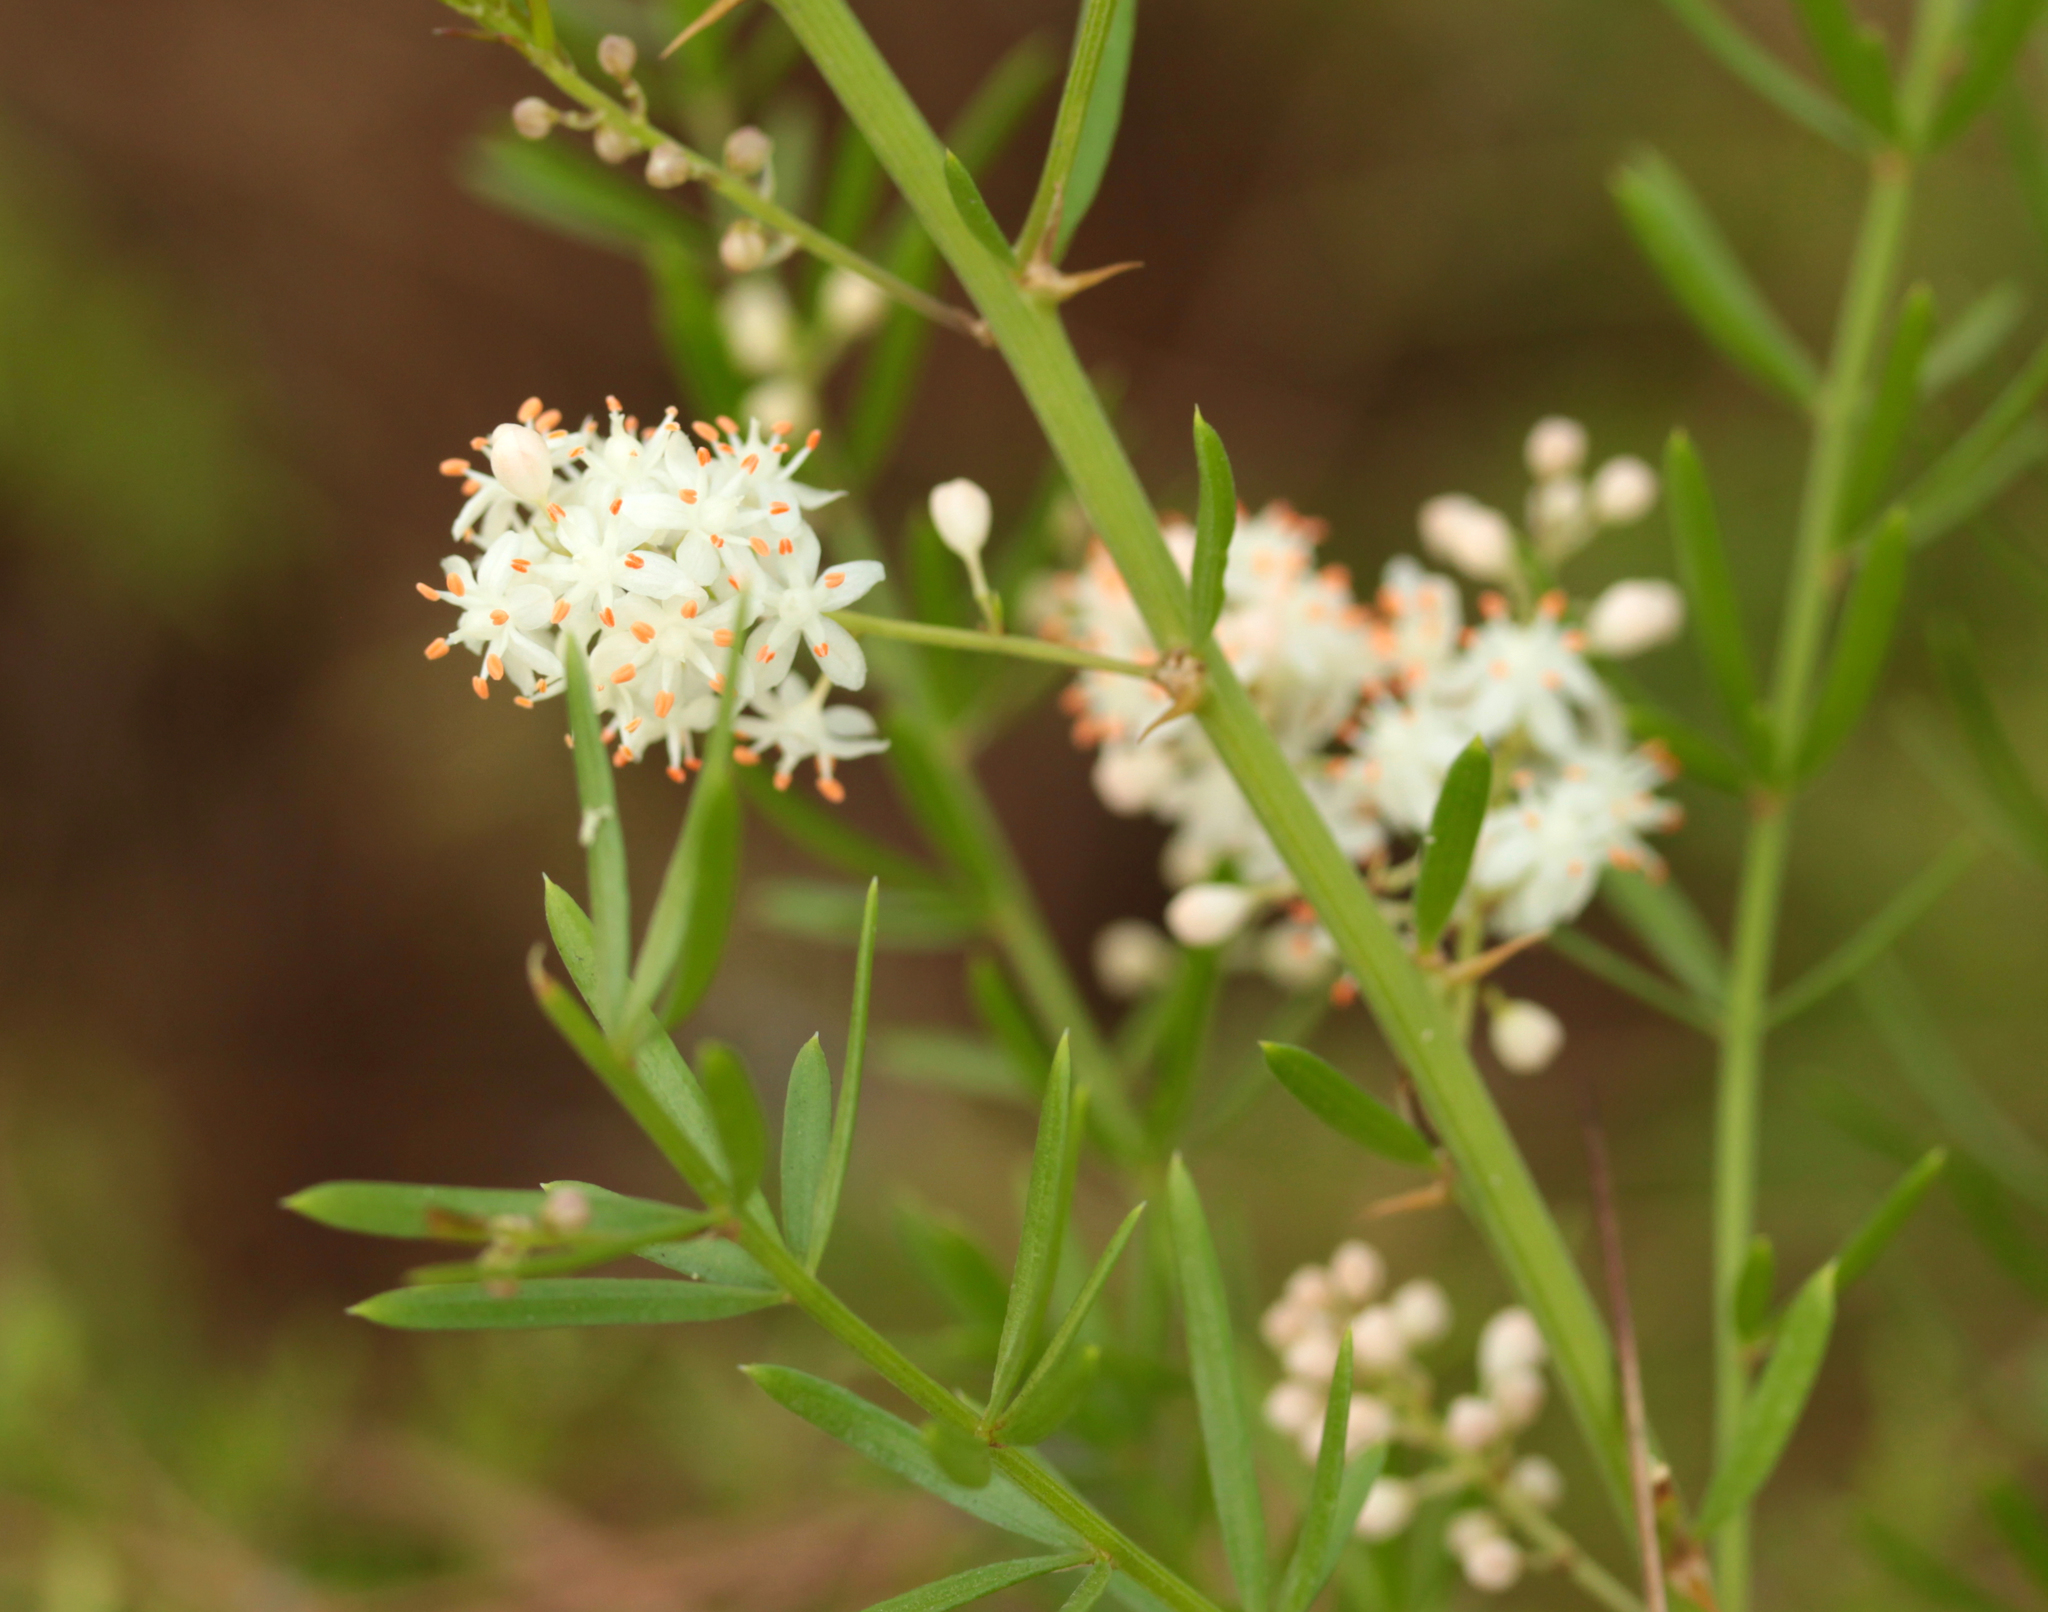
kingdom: Plantae
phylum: Tracheophyta
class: Liliopsida
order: Asparagales
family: Asparagaceae
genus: Asparagus
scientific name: Asparagus aethiopicus
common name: Sprenger's asparagus fern
